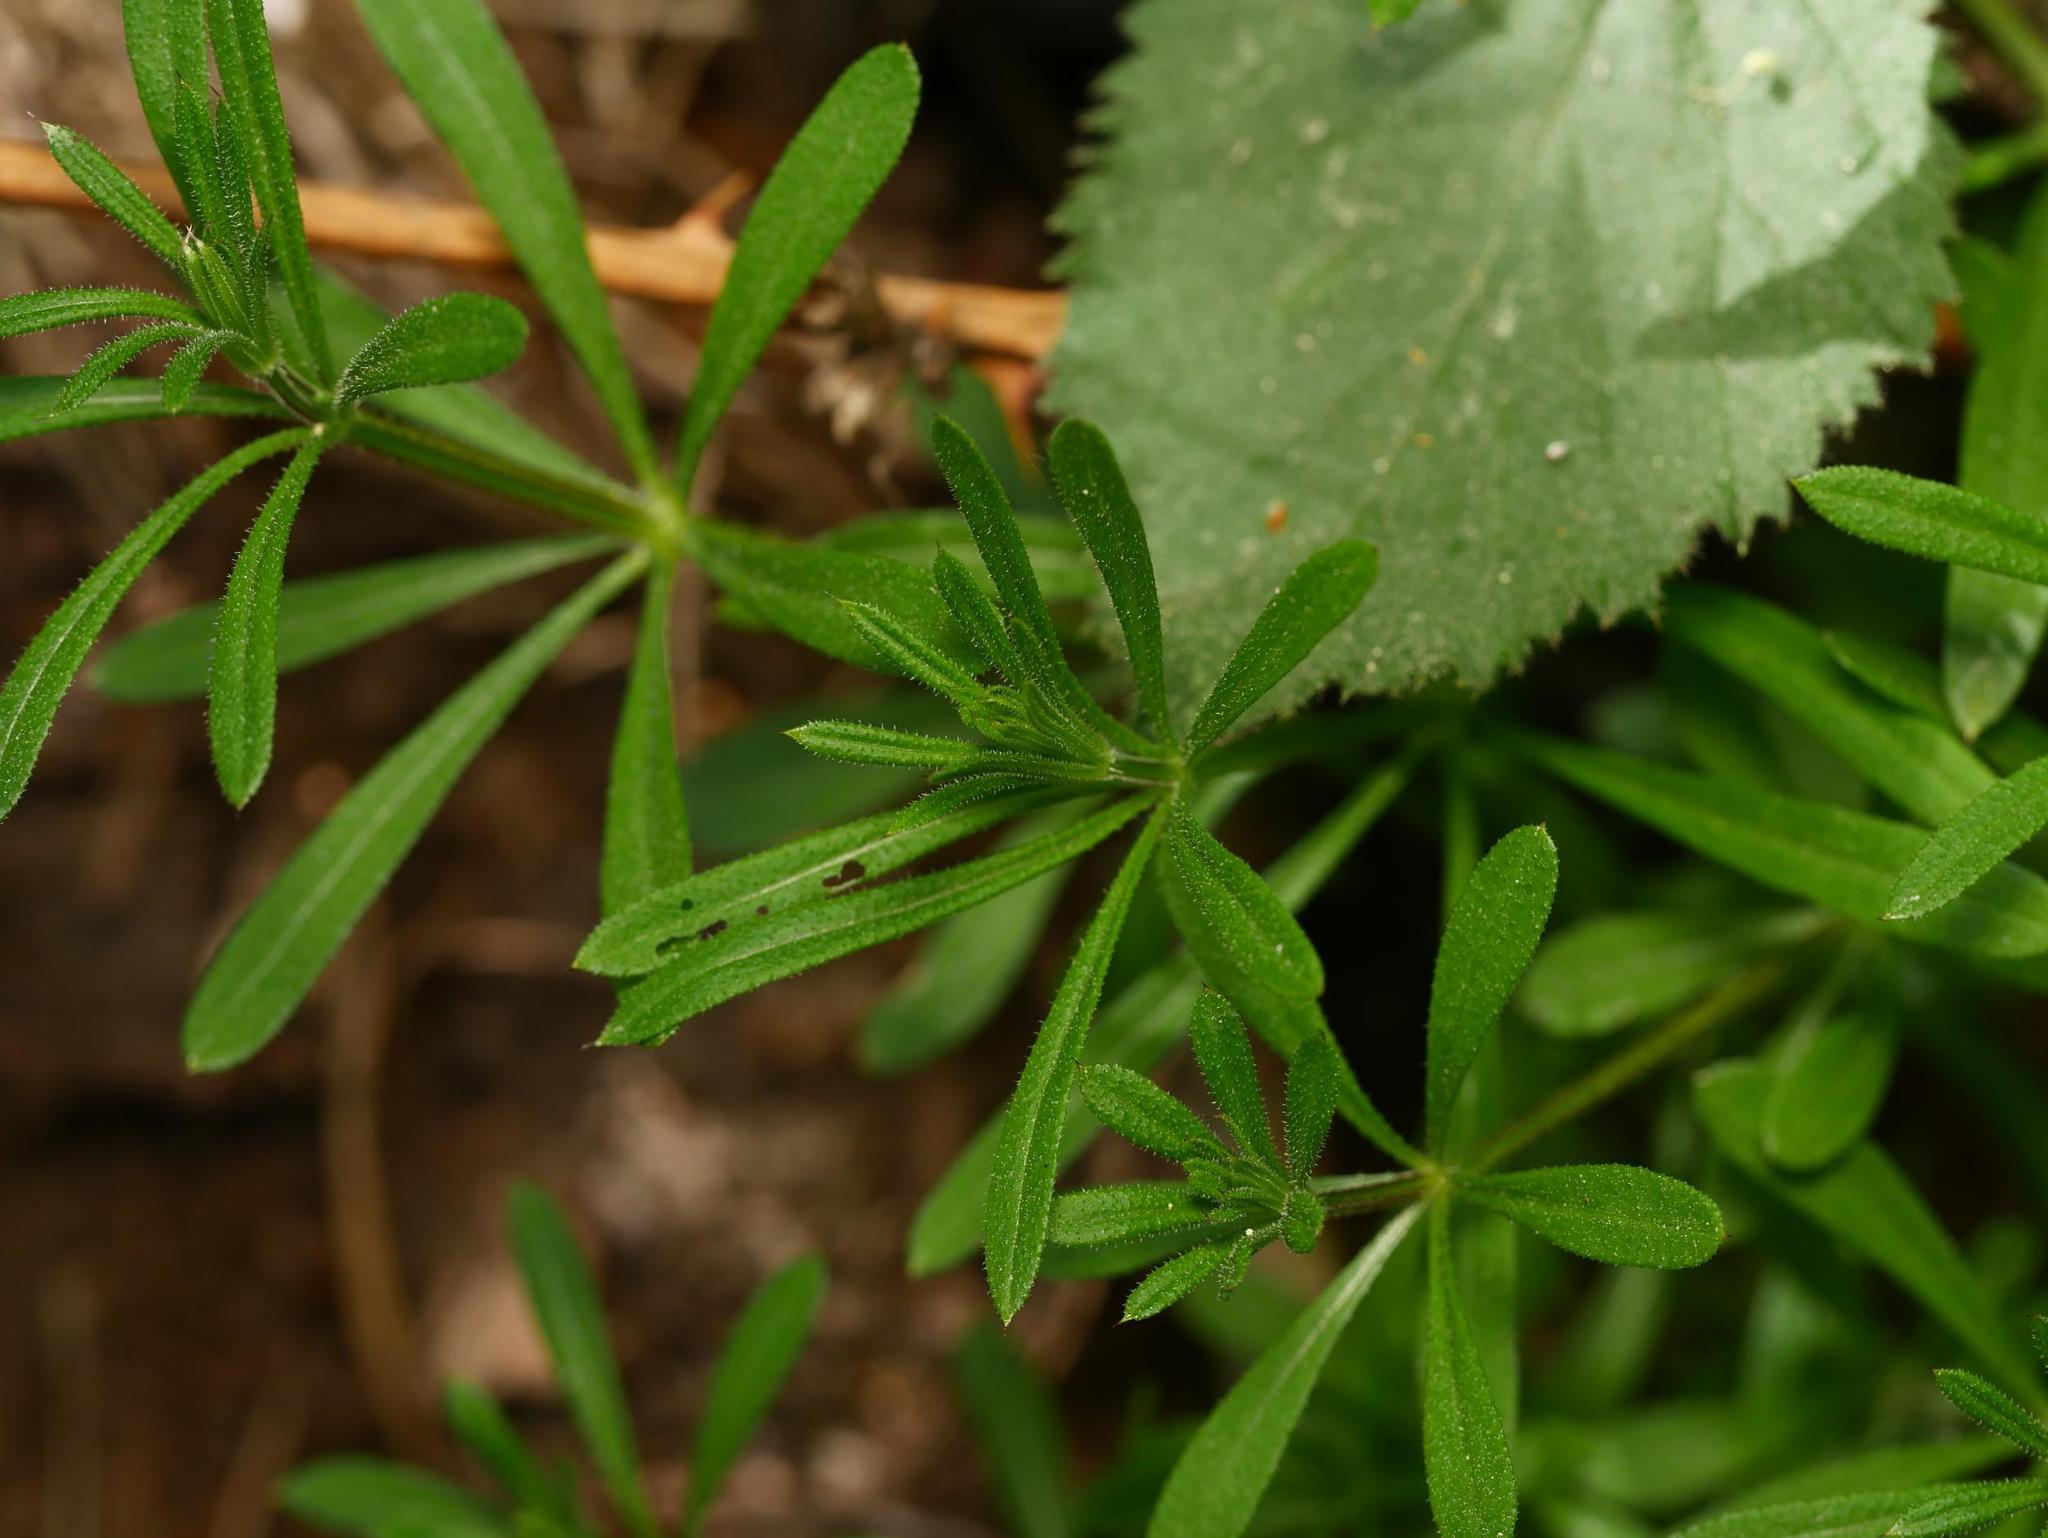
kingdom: Plantae
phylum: Tracheophyta
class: Magnoliopsida
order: Gentianales
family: Rubiaceae
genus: Galium
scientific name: Galium aparine
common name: Cleavers
